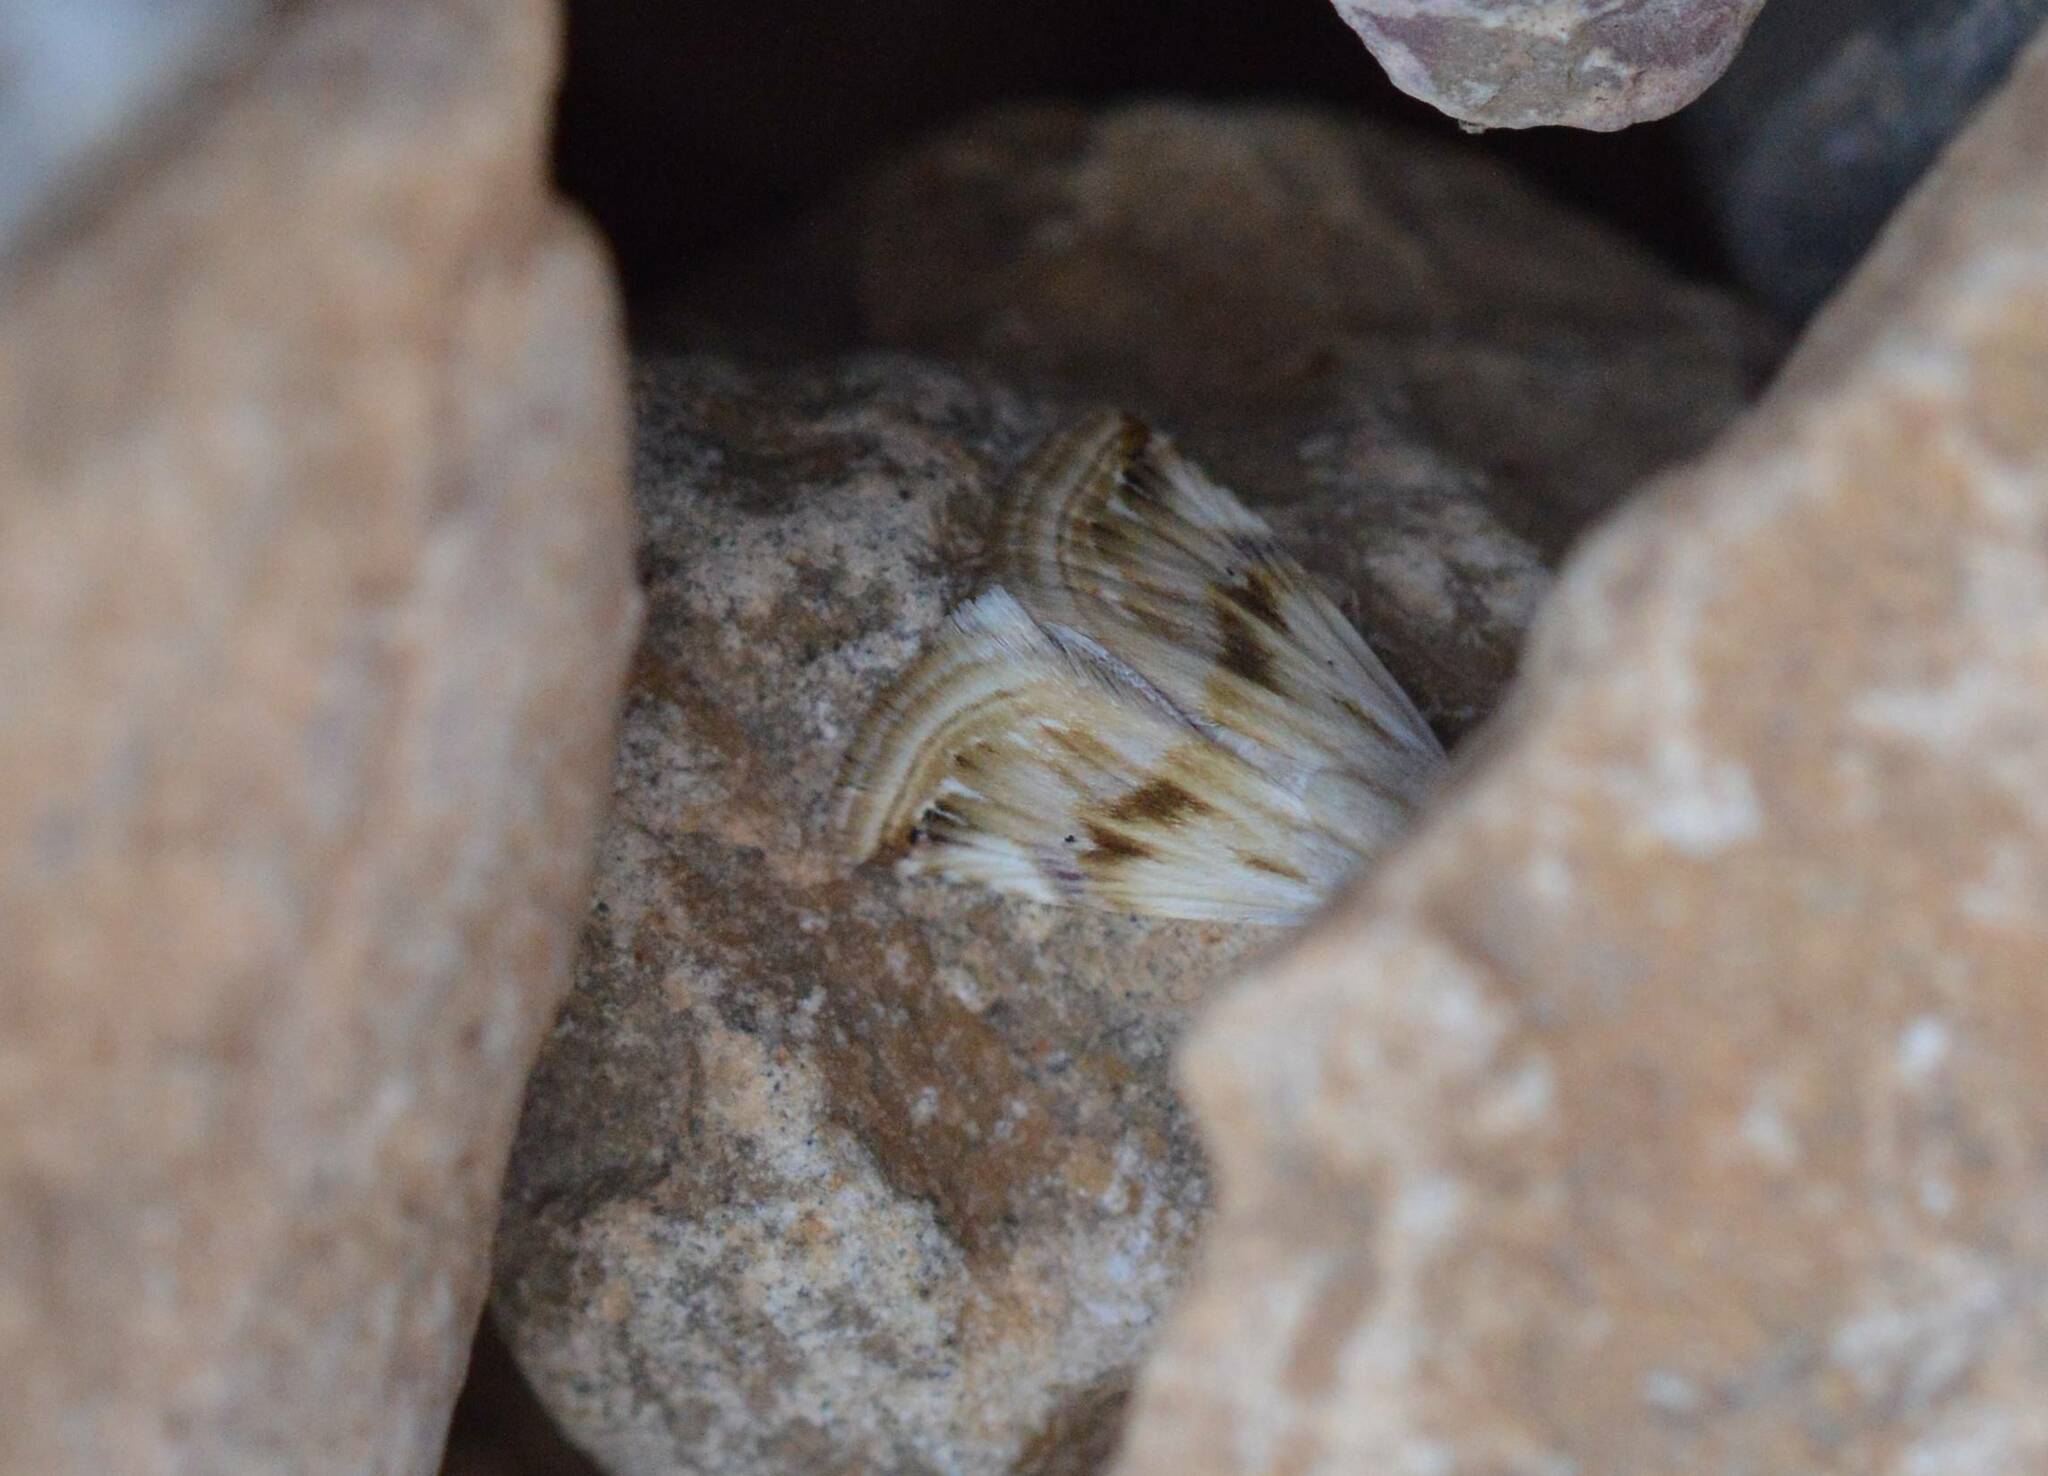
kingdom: Animalia
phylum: Arthropoda
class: Insecta
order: Lepidoptera
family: Noctuidae
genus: Eublemma
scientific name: Eublemma ostrina
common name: Purple marbled
